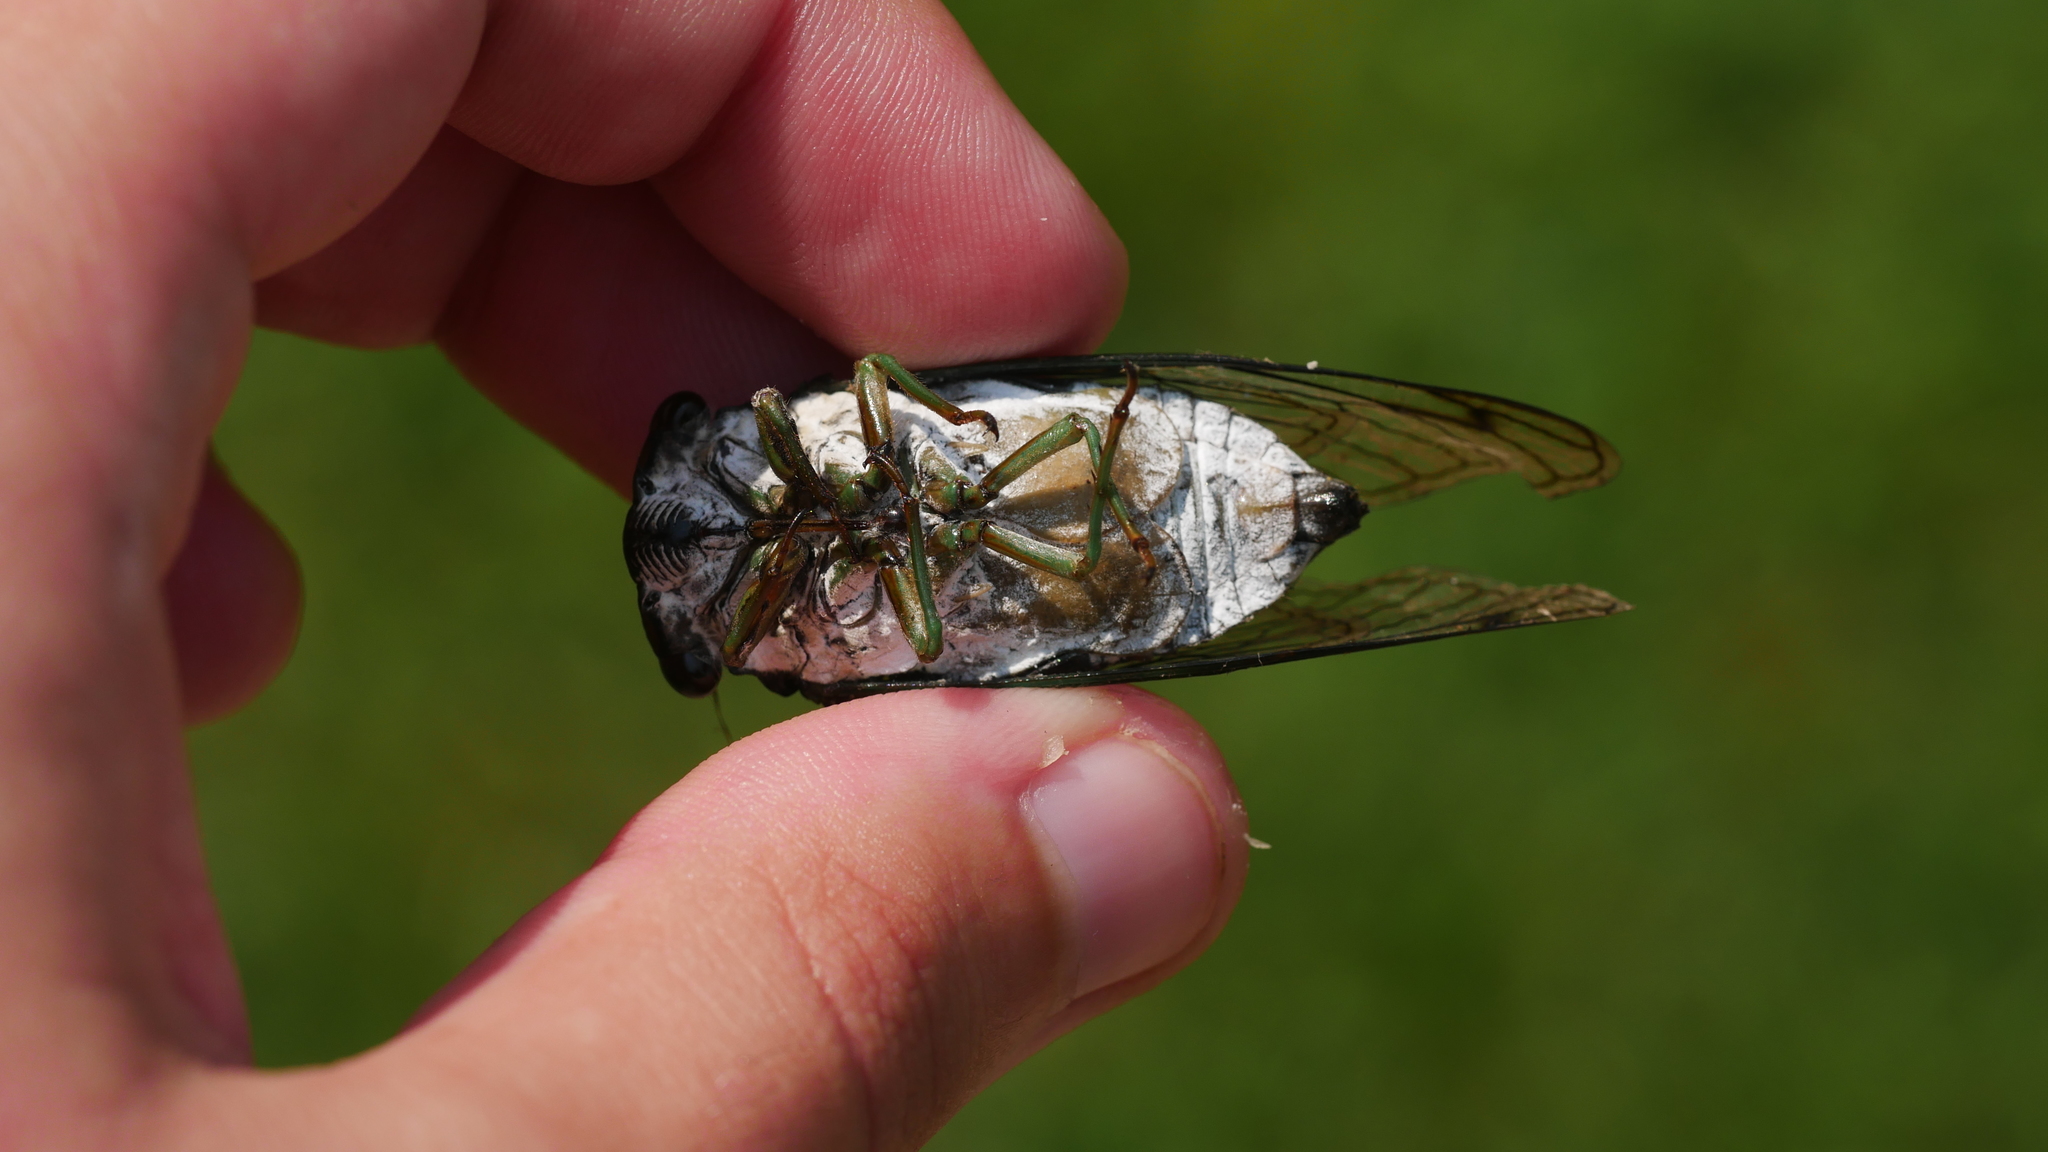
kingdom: Animalia
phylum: Arthropoda
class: Insecta
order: Hemiptera
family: Cicadidae
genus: Neotibicen
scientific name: Neotibicen tibicen
